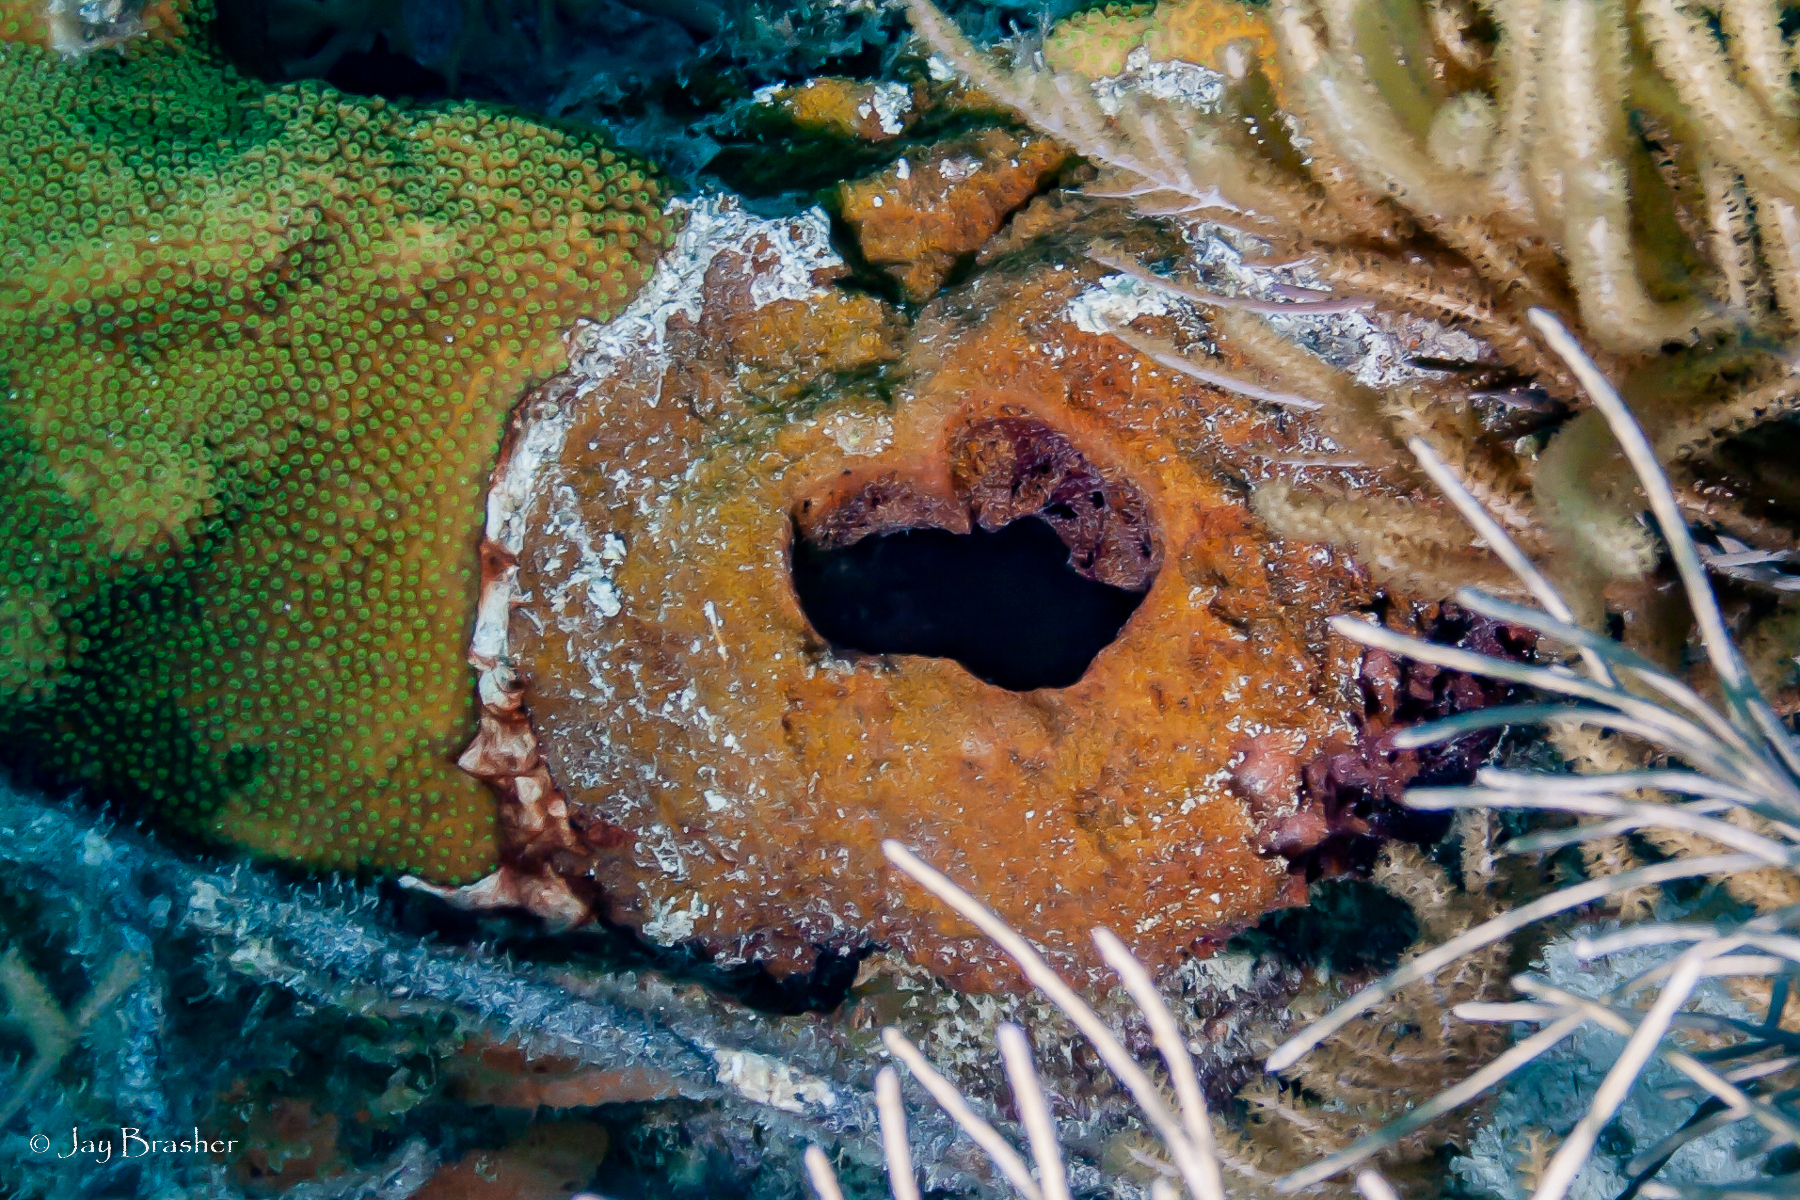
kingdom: Animalia
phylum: Porifera
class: Demospongiae
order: Biemnida
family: Biemnidae
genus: Neofibularia
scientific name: Neofibularia nolitangere
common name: Do-not-touch-me sponge
